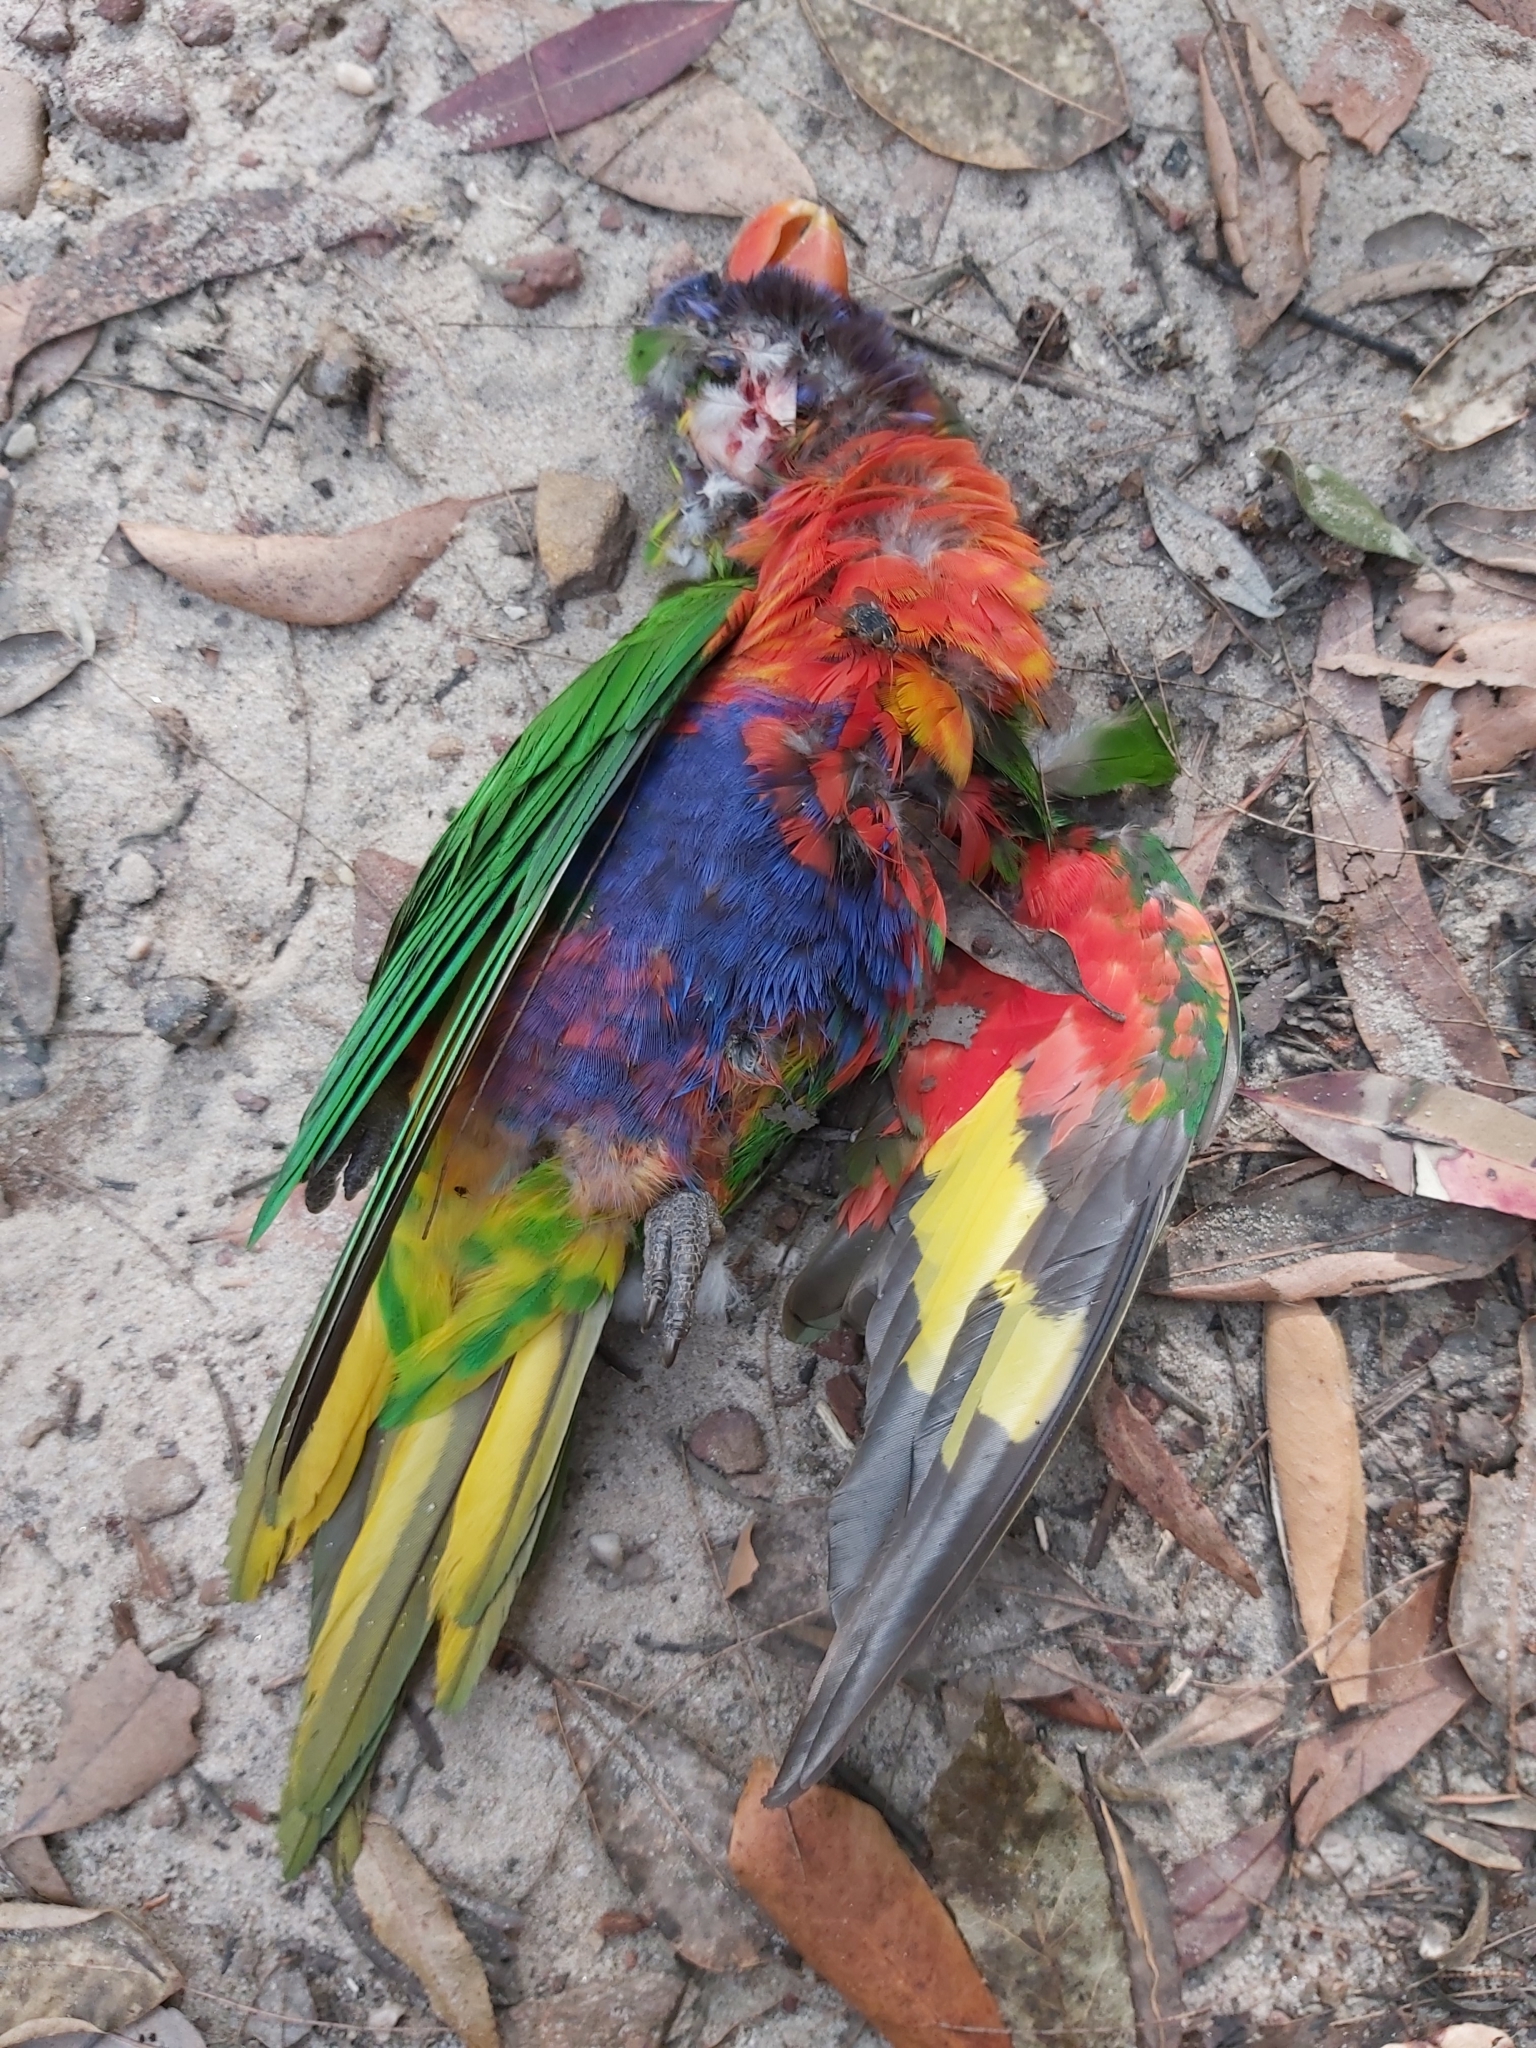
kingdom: Animalia
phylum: Chordata
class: Aves
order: Psittaciformes
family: Psittacidae
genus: Trichoglossus
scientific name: Trichoglossus haematodus
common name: Coconut lorikeet
